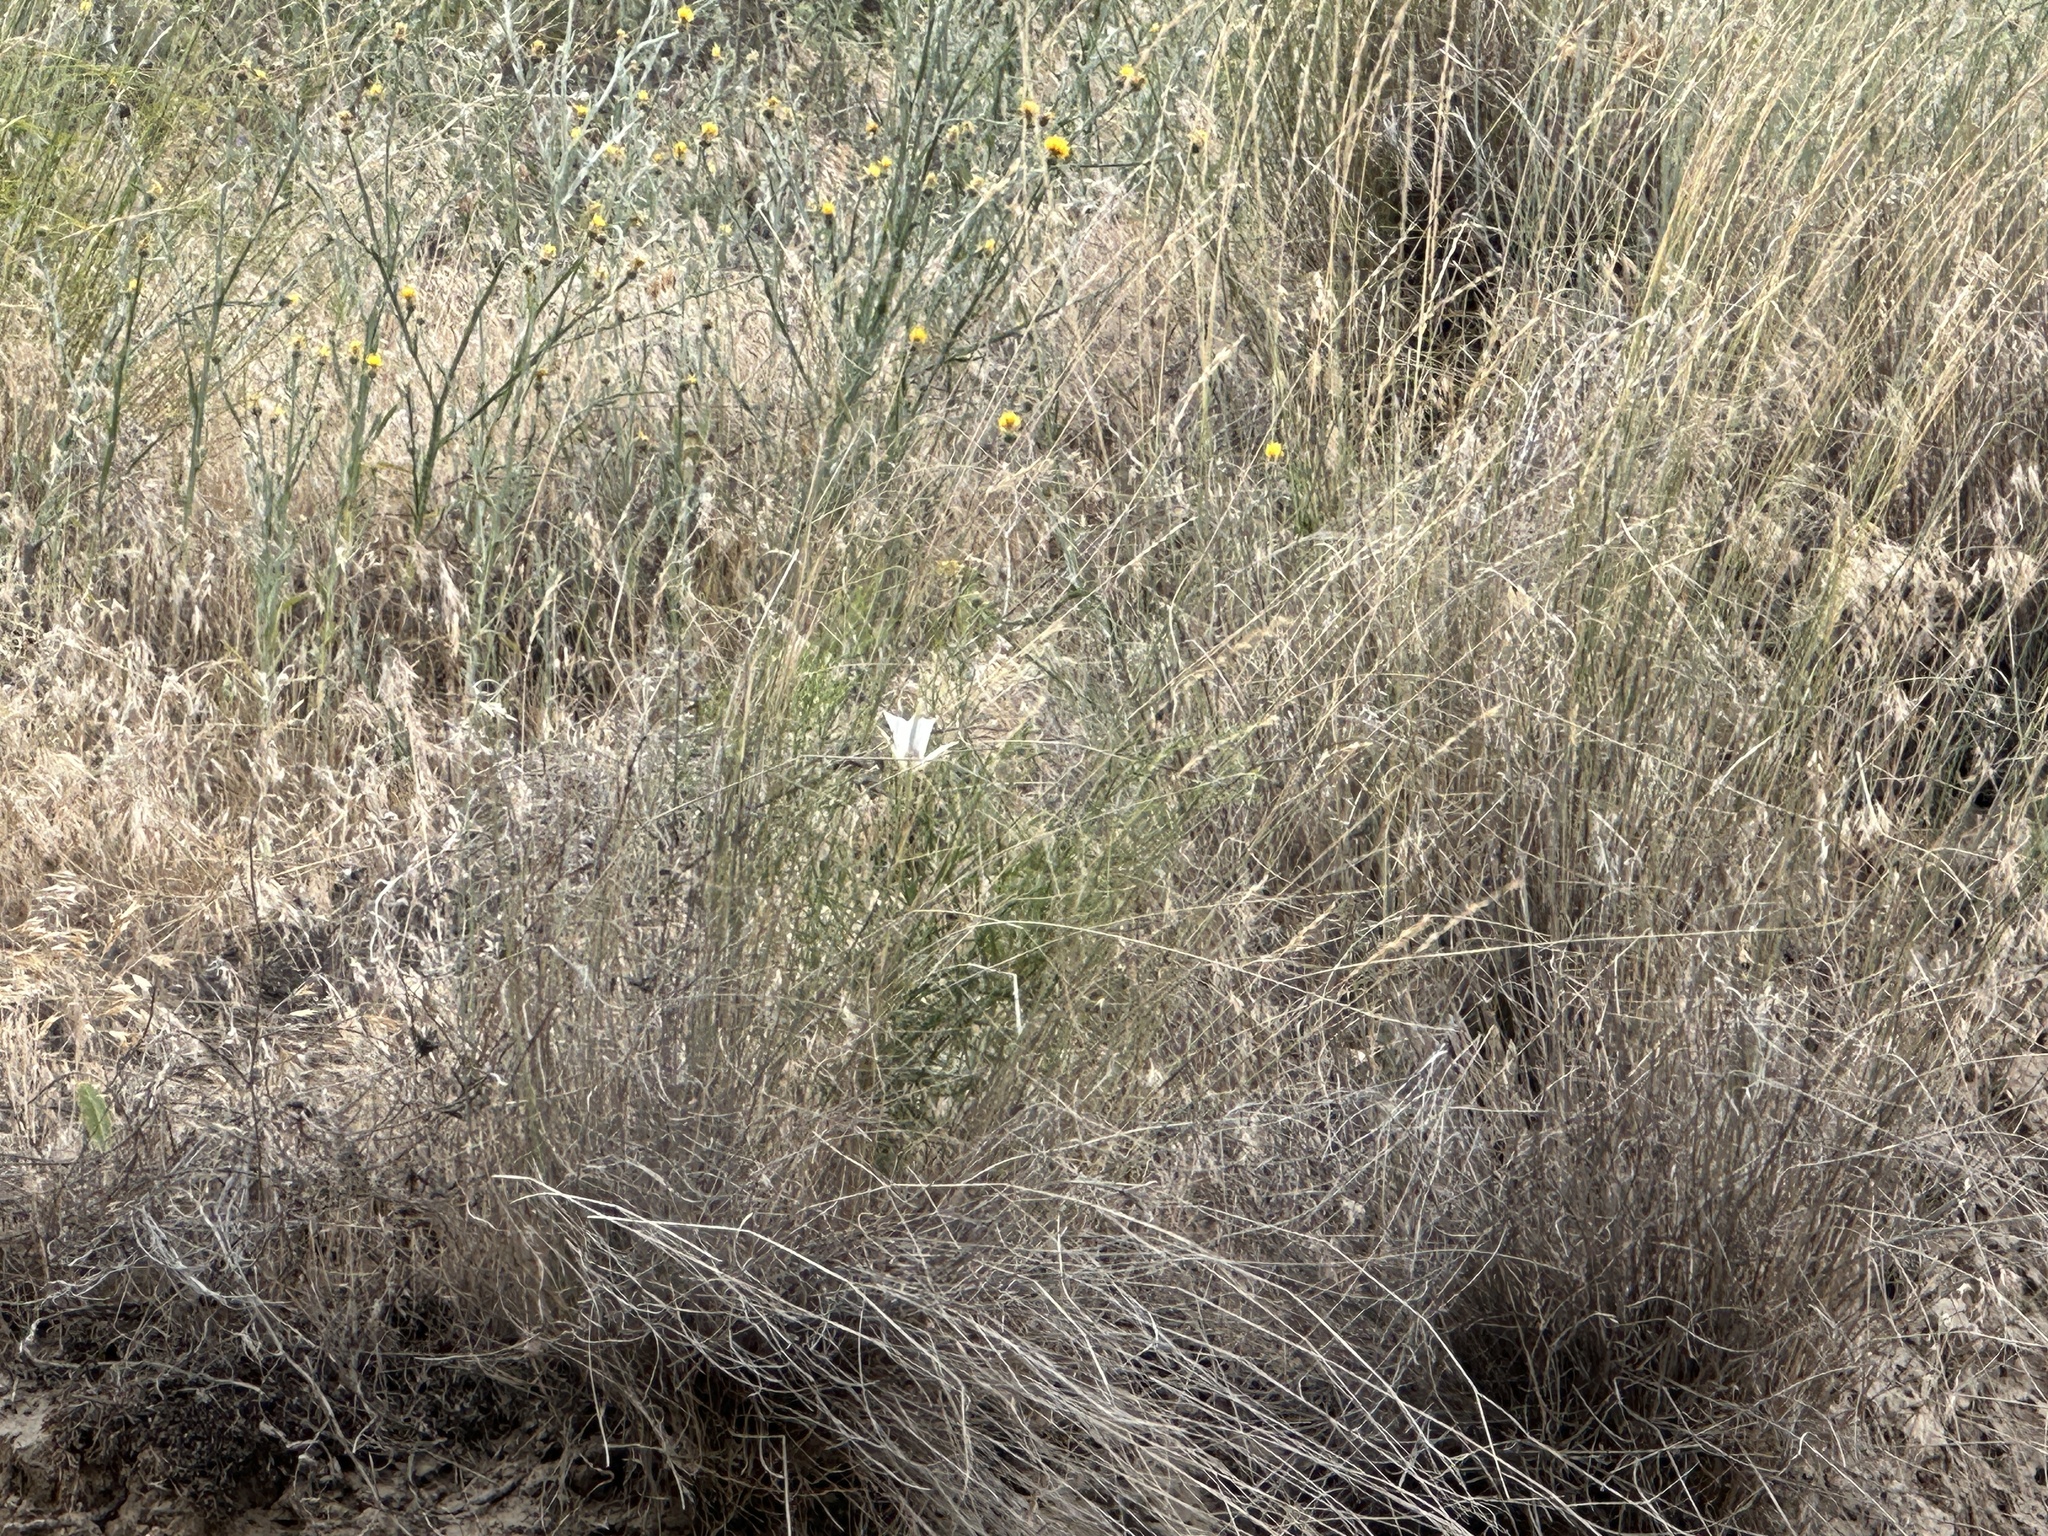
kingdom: Plantae
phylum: Tracheophyta
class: Liliopsida
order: Liliales
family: Liliaceae
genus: Calochortus
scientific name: Calochortus macrocarpus
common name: Green-band mariposa lily
